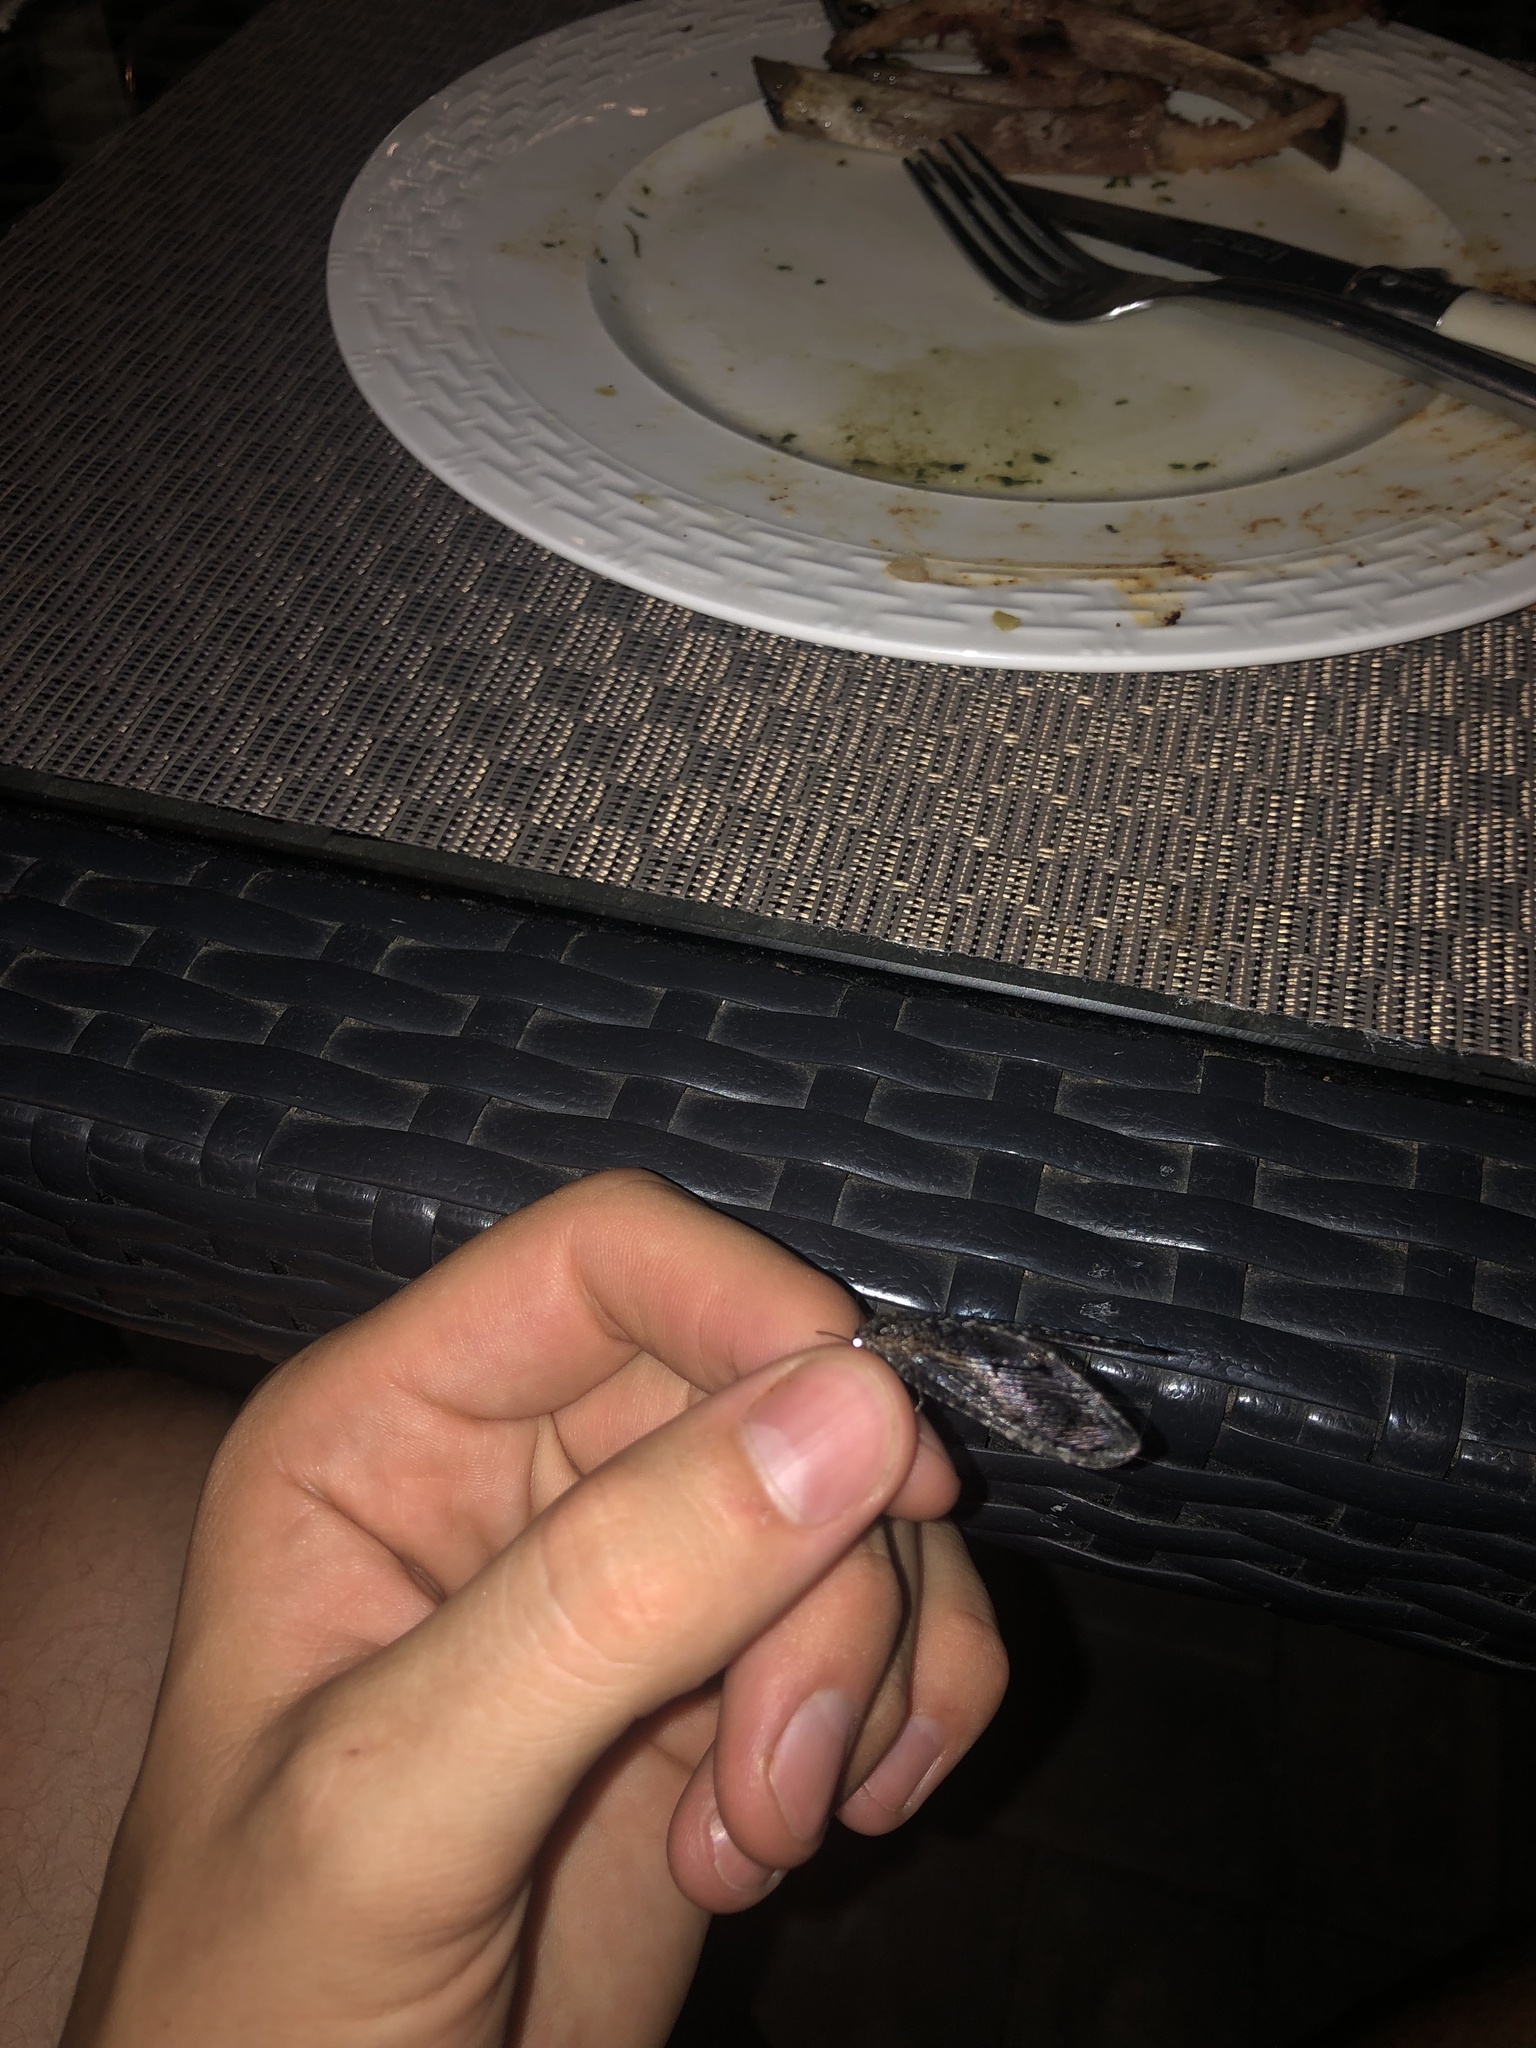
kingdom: Animalia
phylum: Arthropoda
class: Insecta
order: Neuroptera
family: Ithonidae
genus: Polystoechotes
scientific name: Polystoechotes punctata
